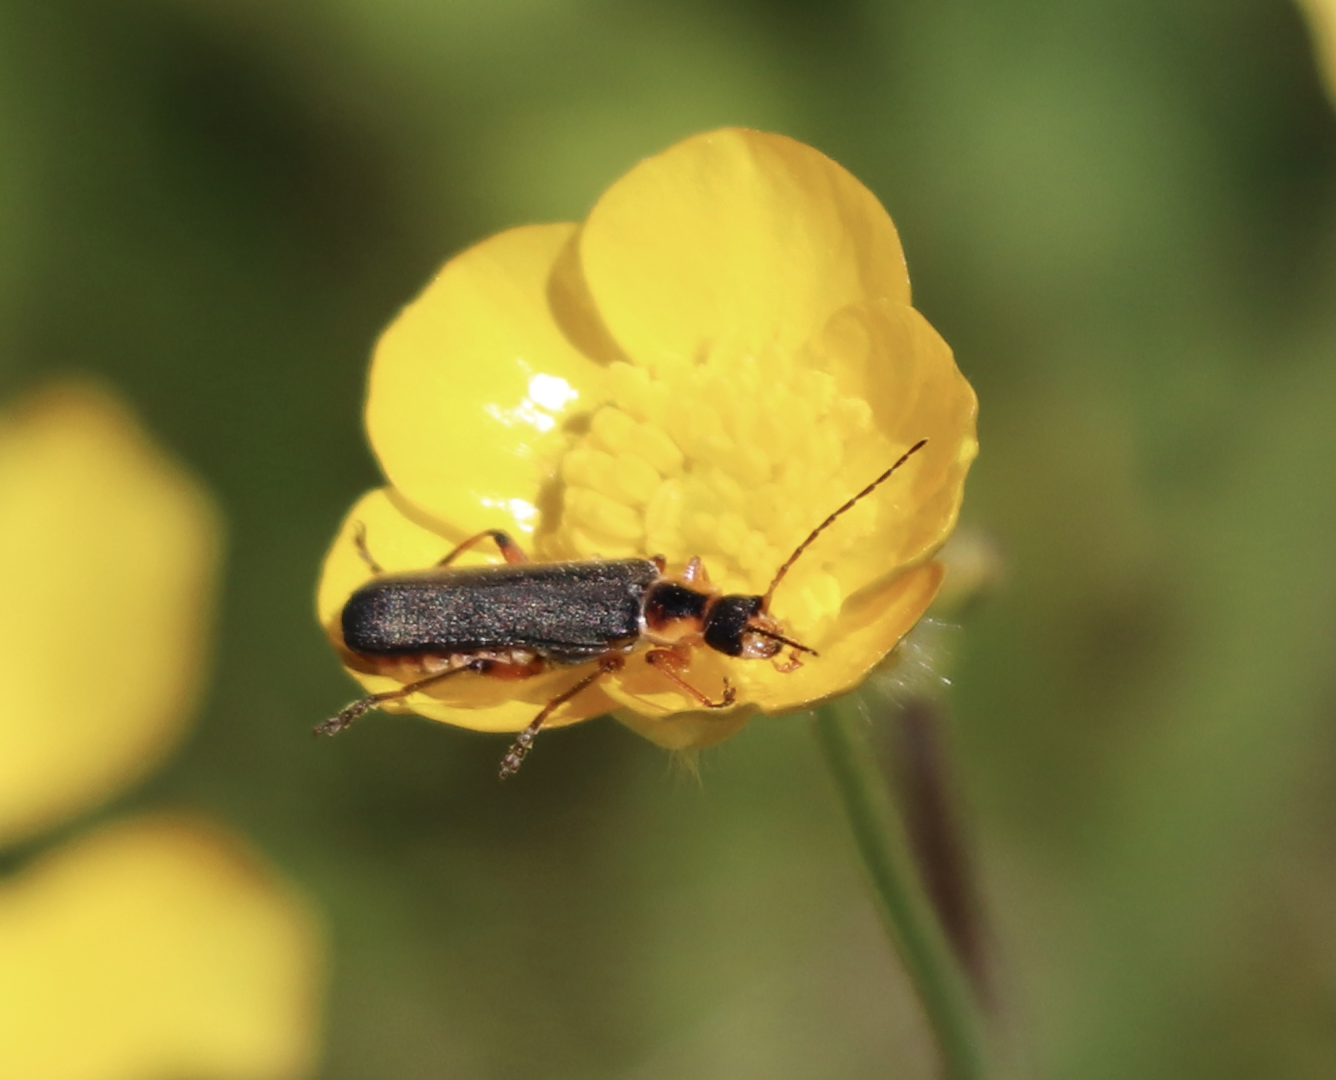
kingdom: Animalia
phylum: Arthropoda
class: Insecta
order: Coleoptera
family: Cantharidae
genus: Cantharis
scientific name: Cantharis nigricans
